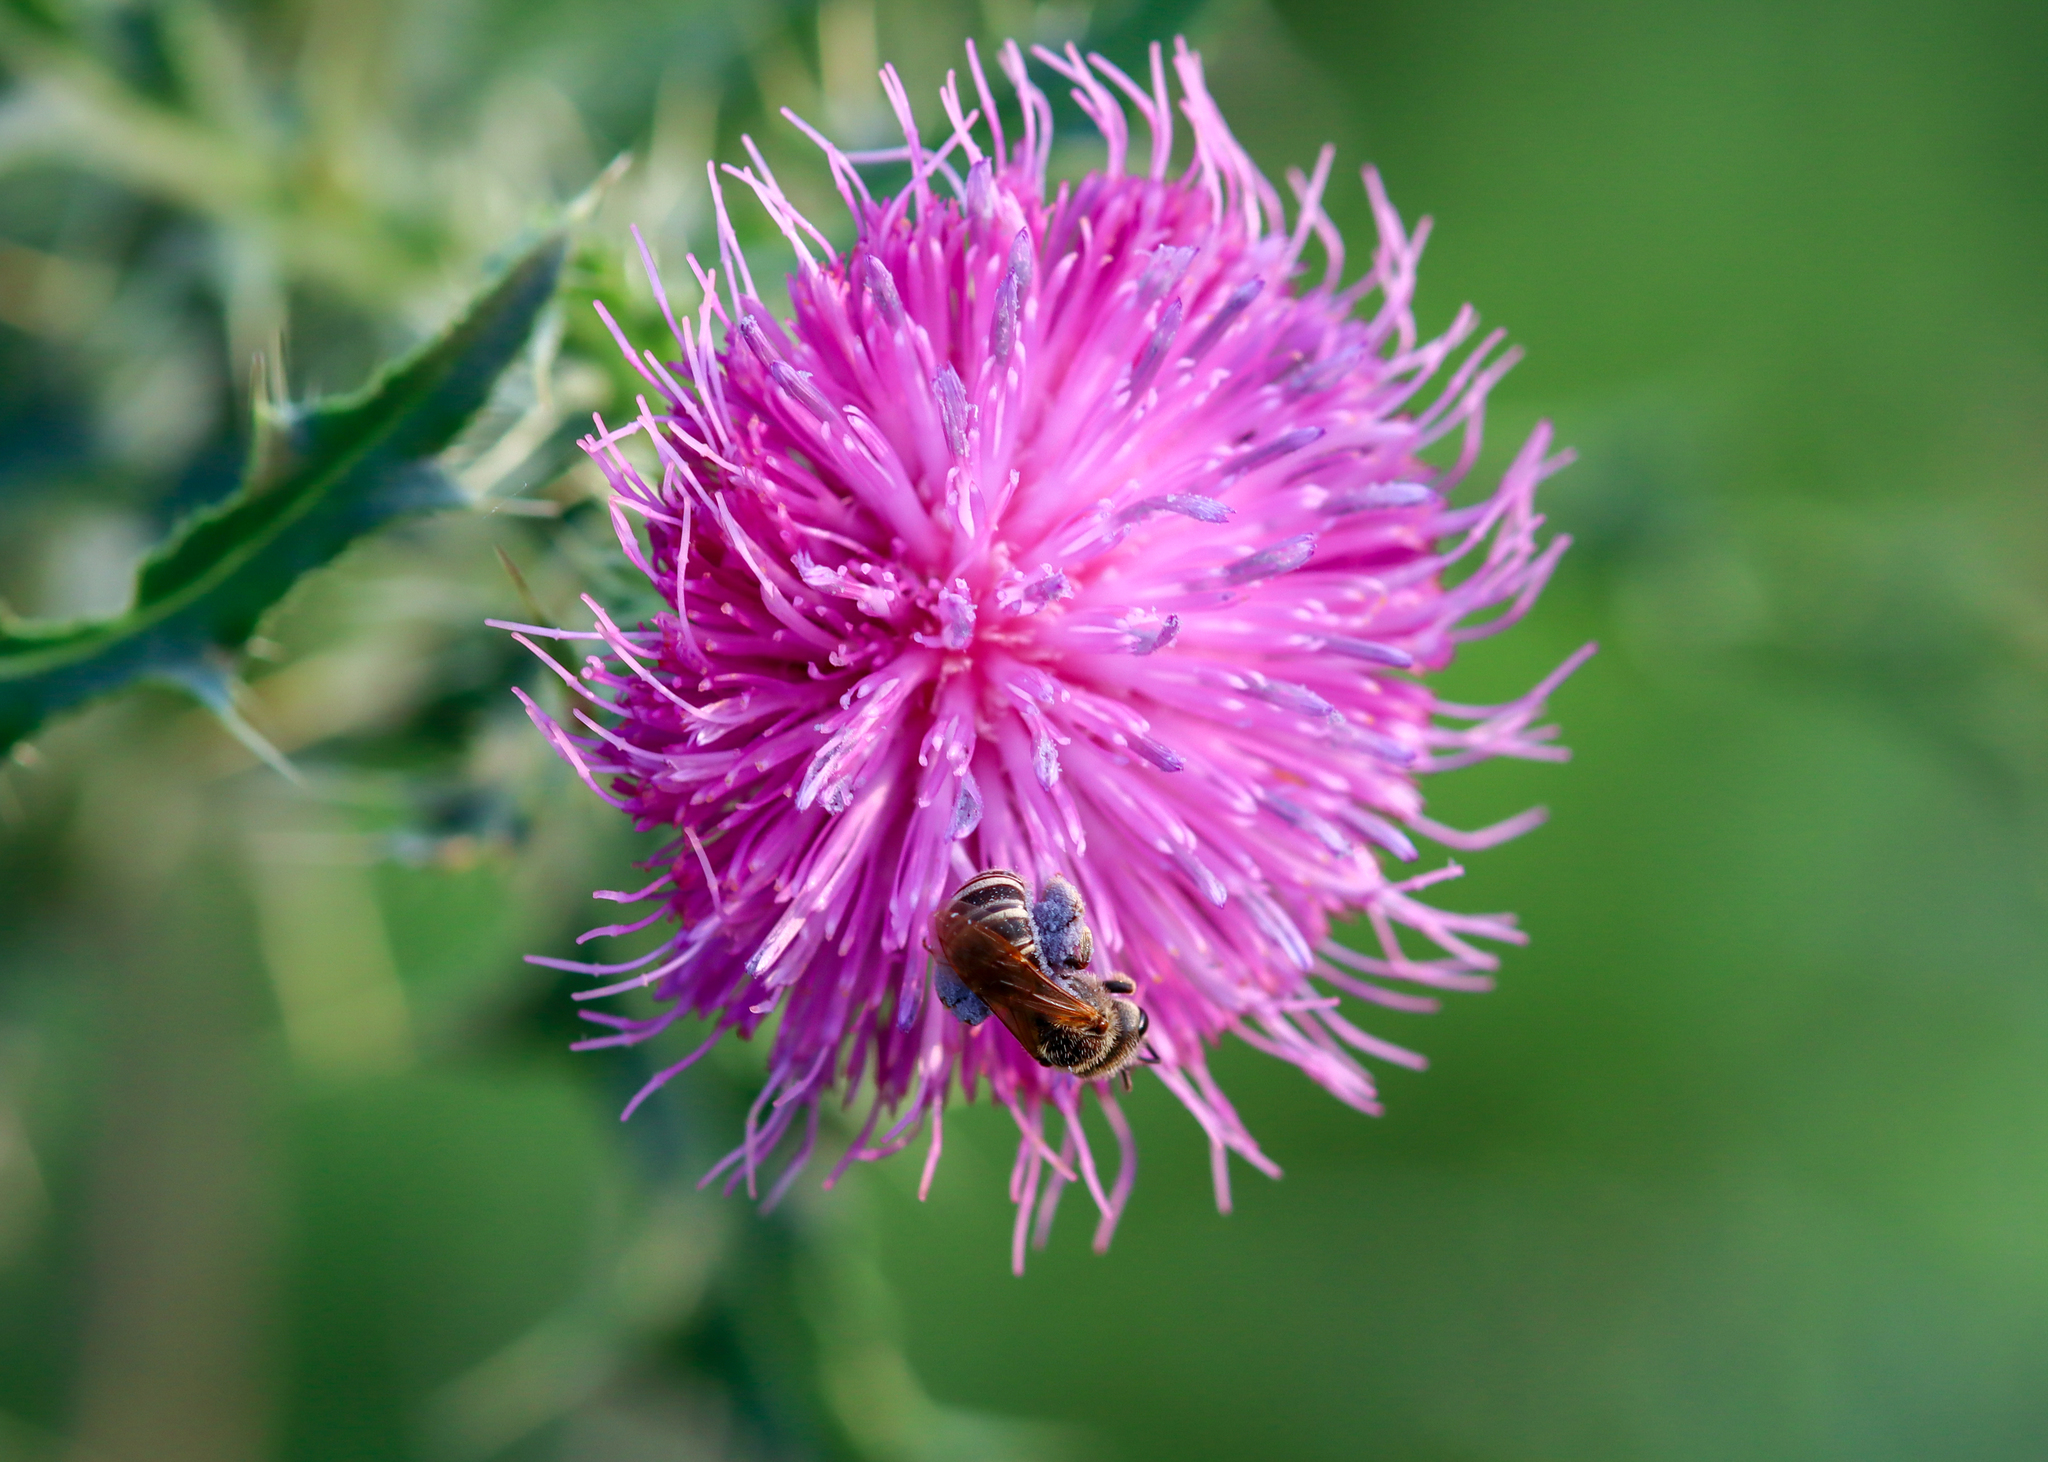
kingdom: Animalia
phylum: Arthropoda
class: Insecta
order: Hymenoptera
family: Halictidae
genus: Halictus
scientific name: Halictus ligatus
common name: Ligated furrow bee
